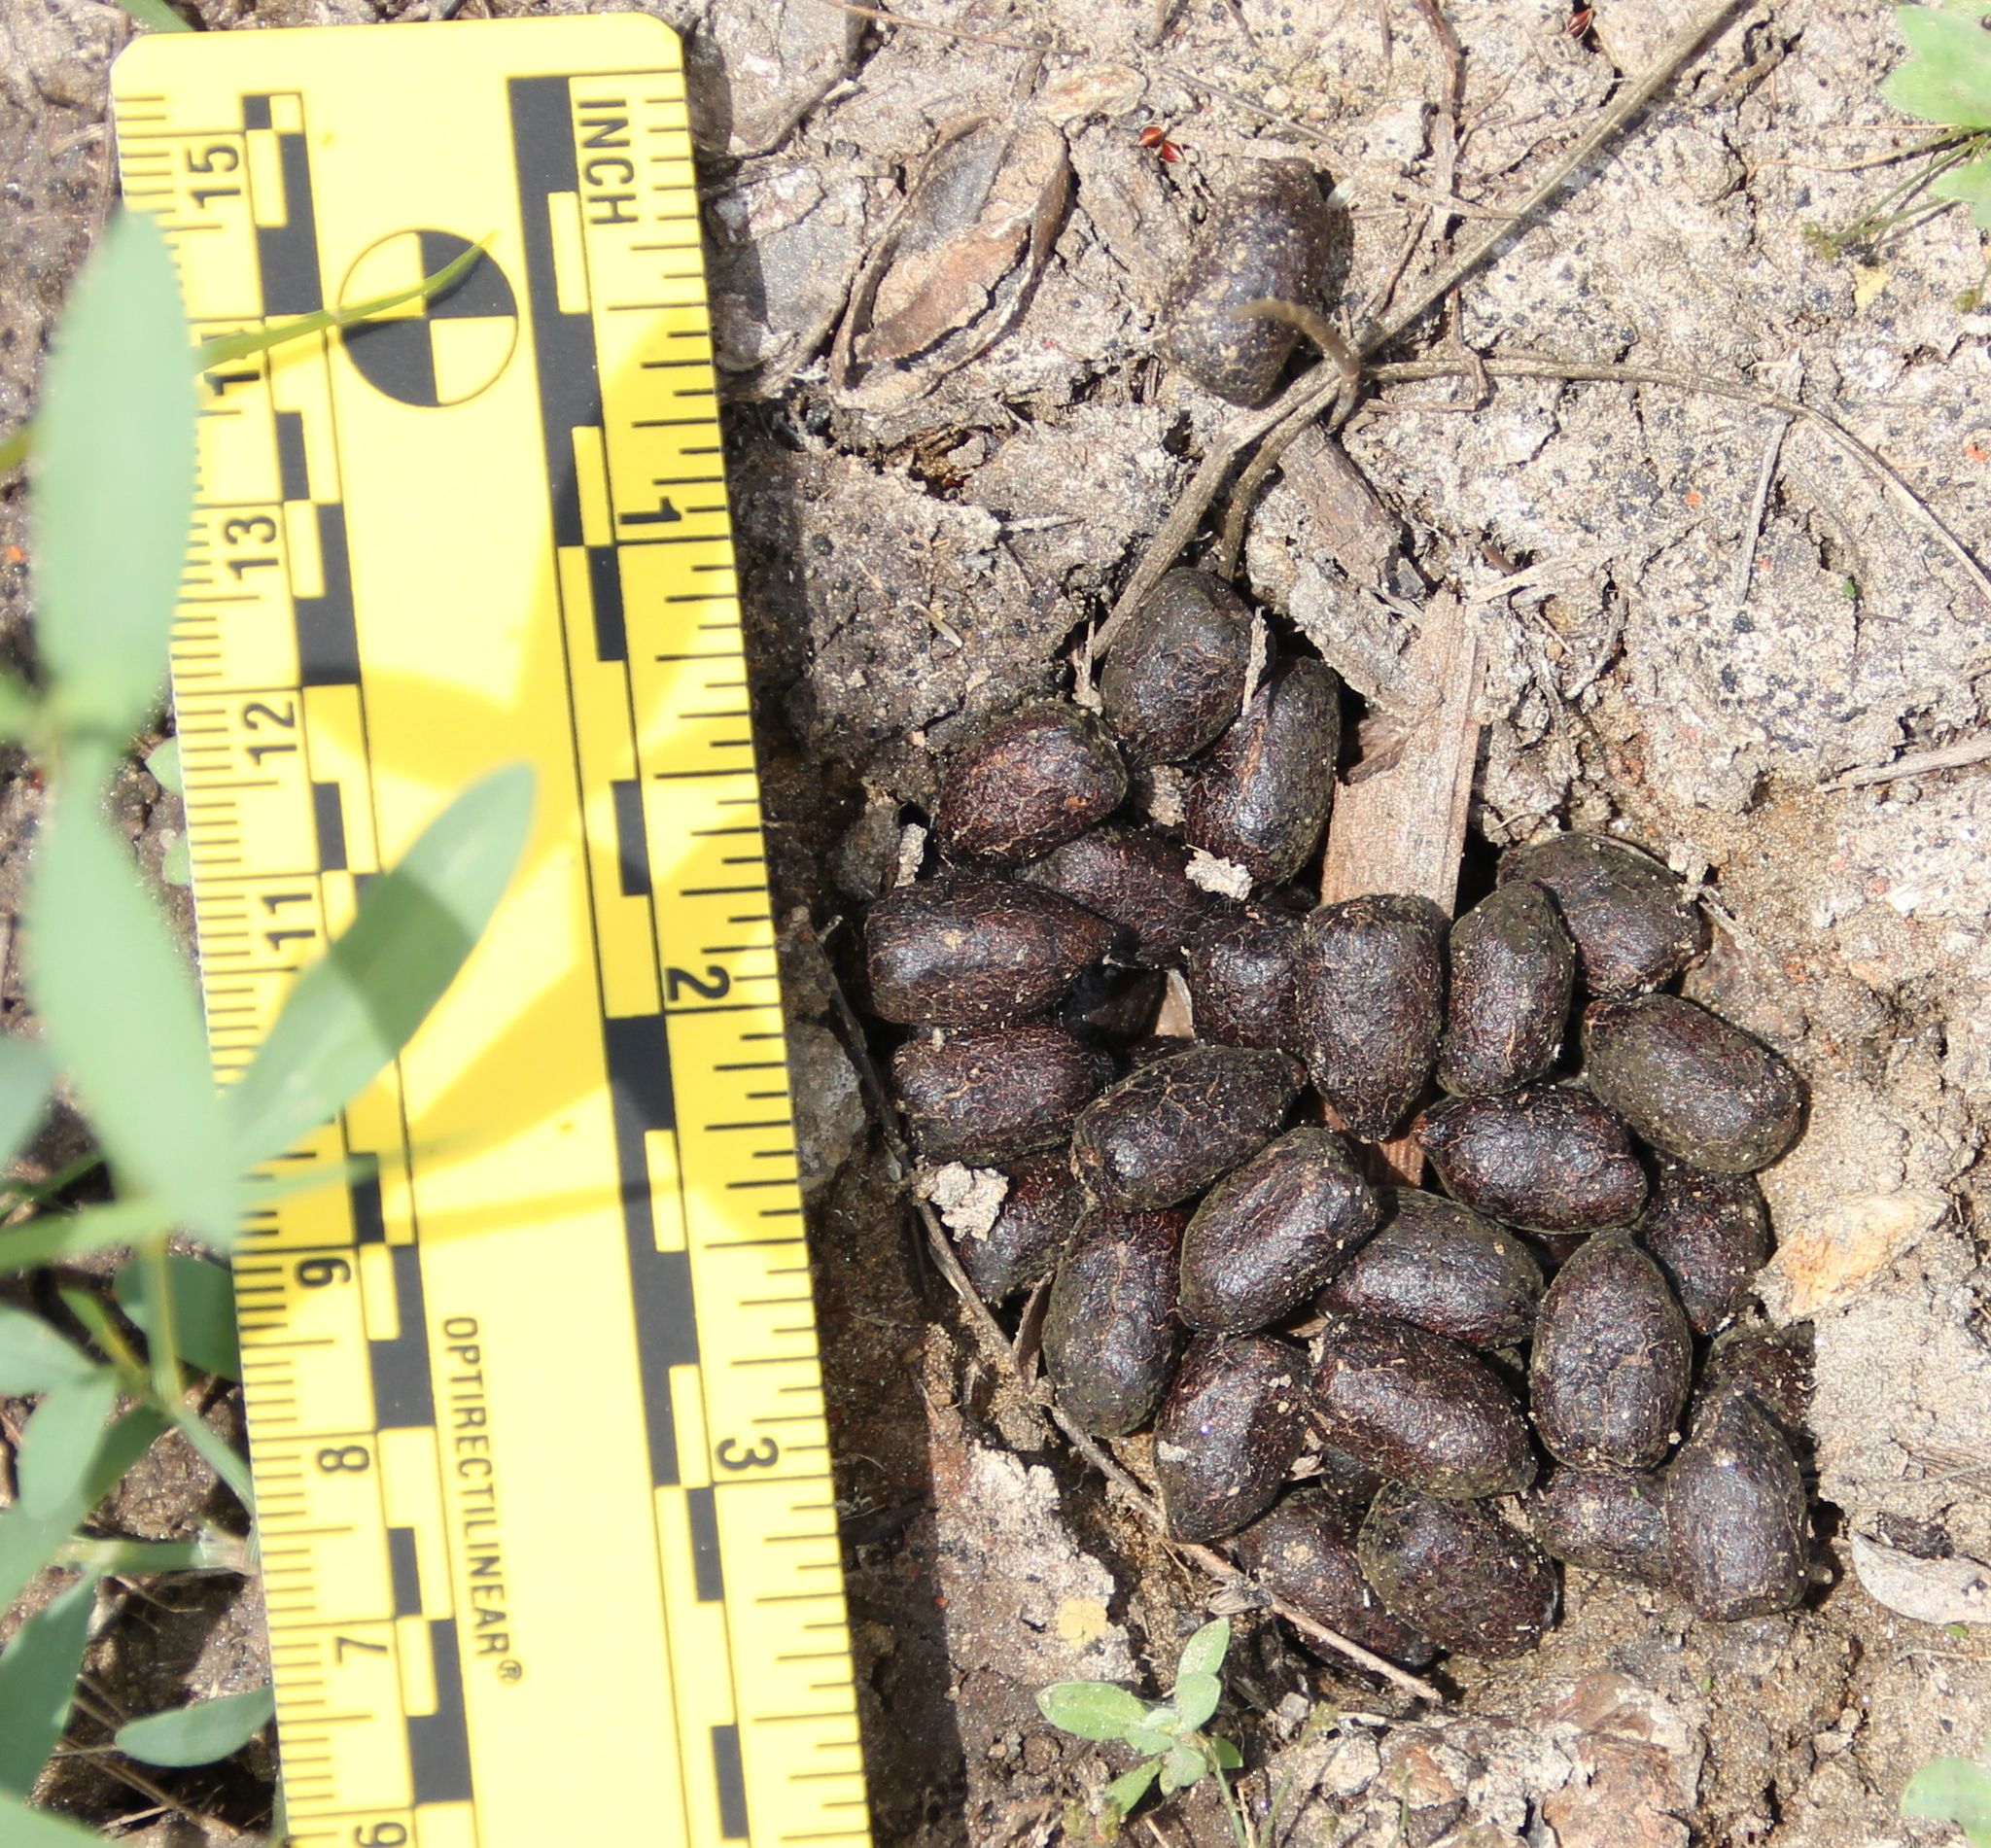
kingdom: Animalia
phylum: Chordata
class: Mammalia
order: Artiodactyla
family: Cervidae
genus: Odocoileus
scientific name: Odocoileus hemionus
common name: Mule deer
